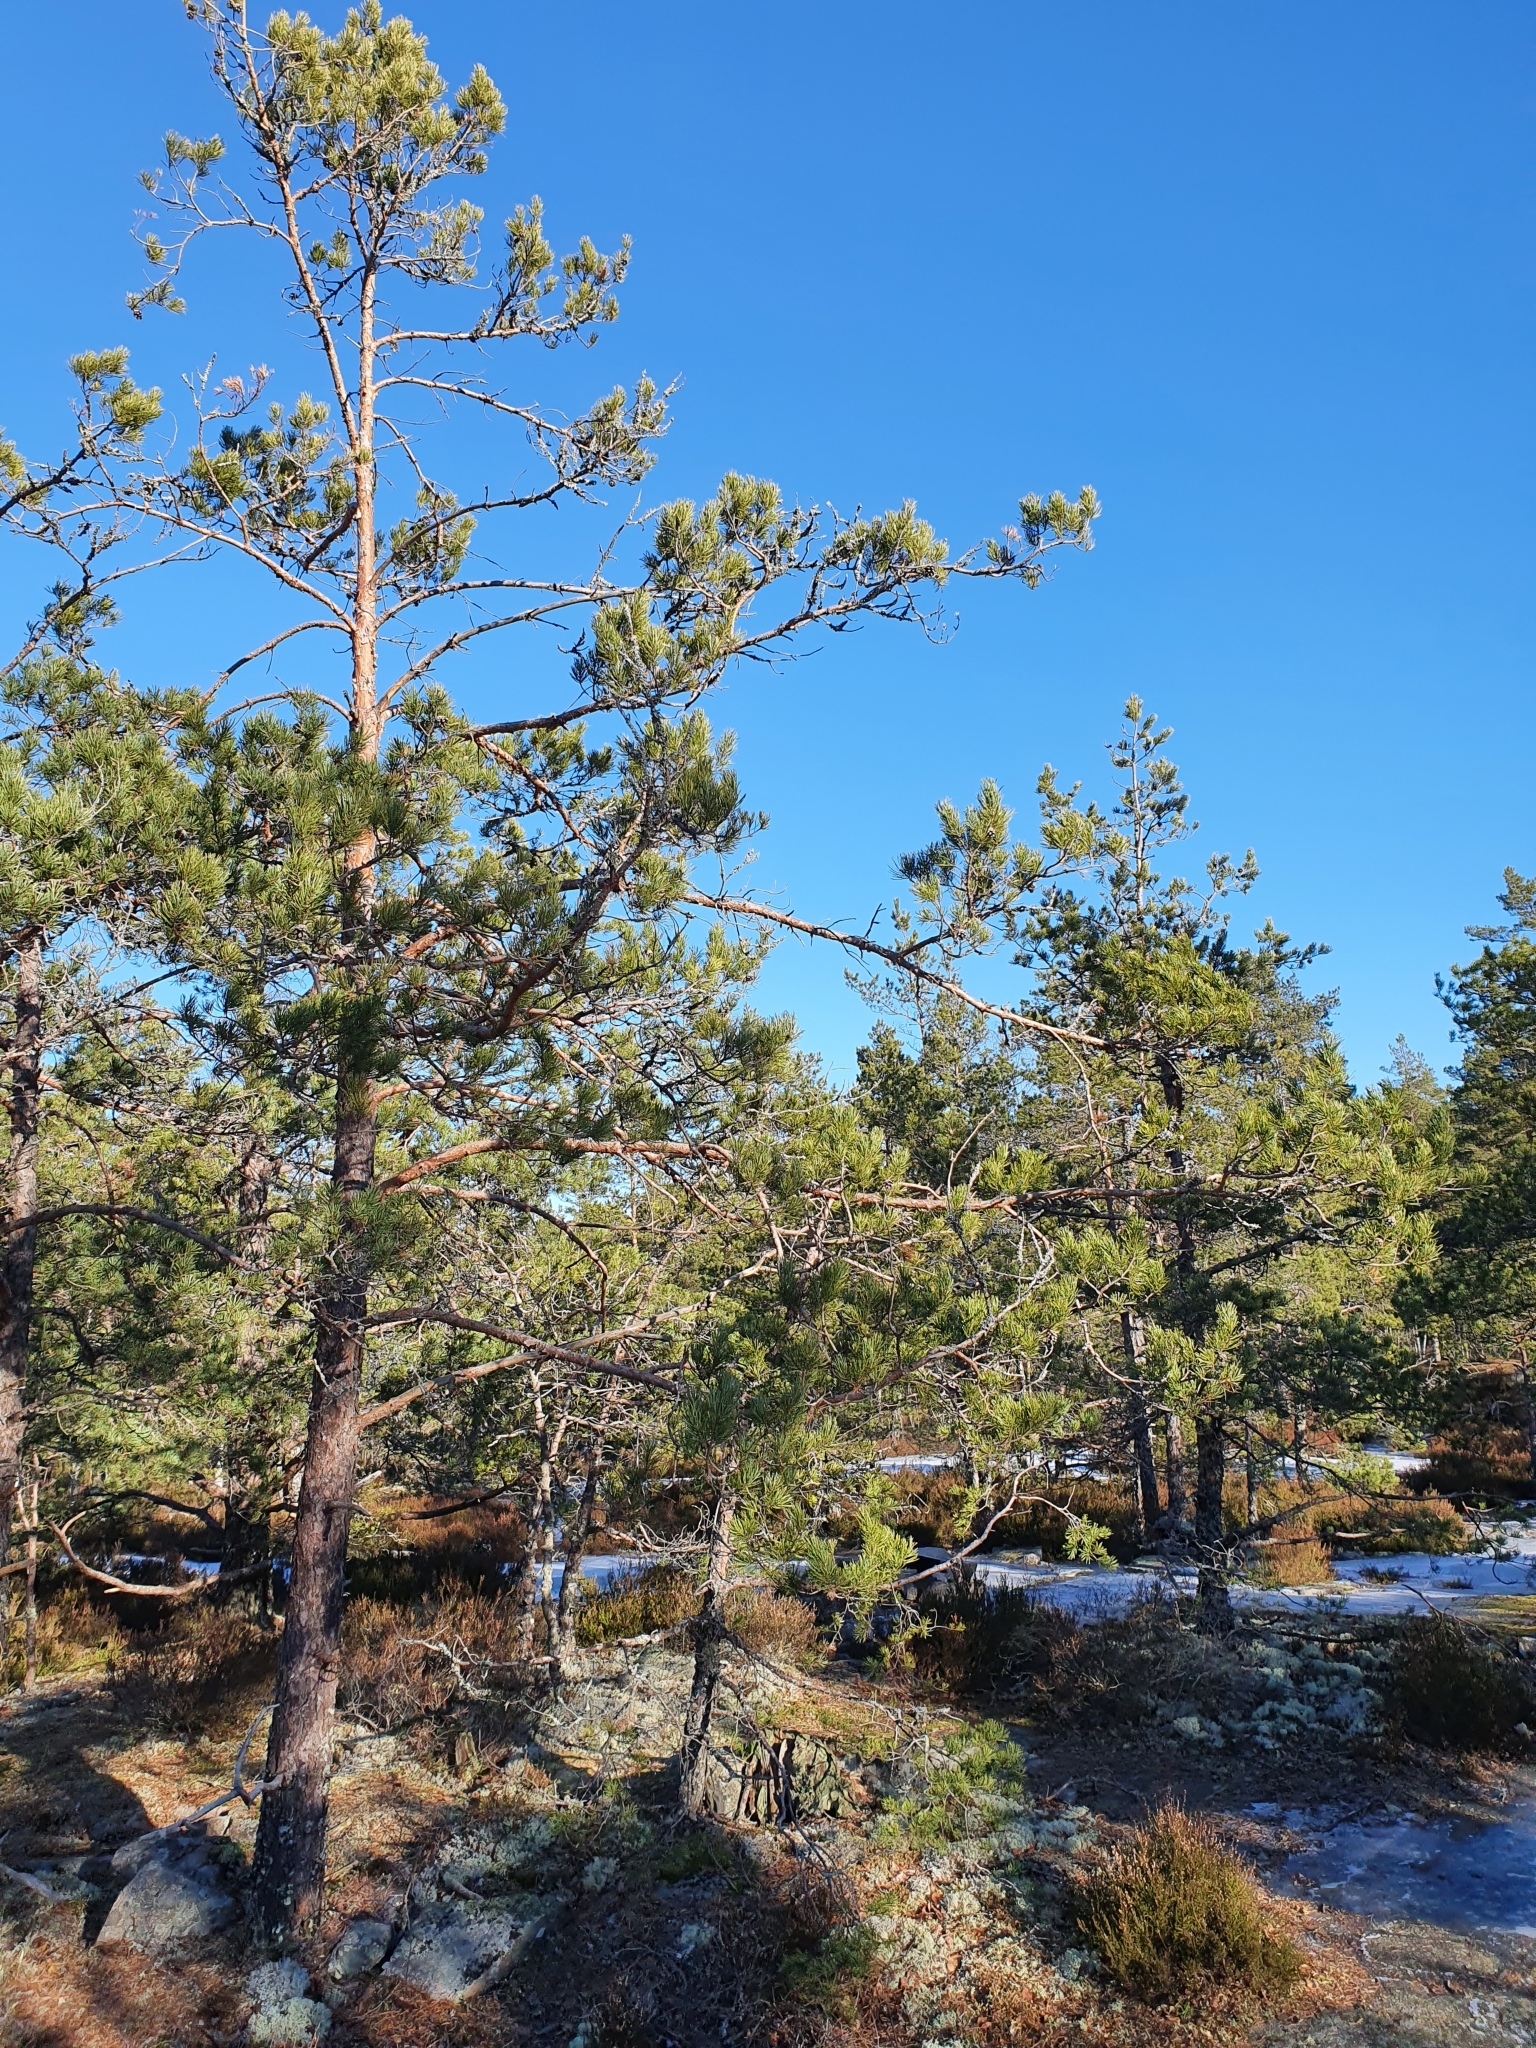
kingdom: Plantae
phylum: Tracheophyta
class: Pinopsida
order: Pinales
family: Pinaceae
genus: Pinus
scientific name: Pinus sylvestris
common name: Scots pine
